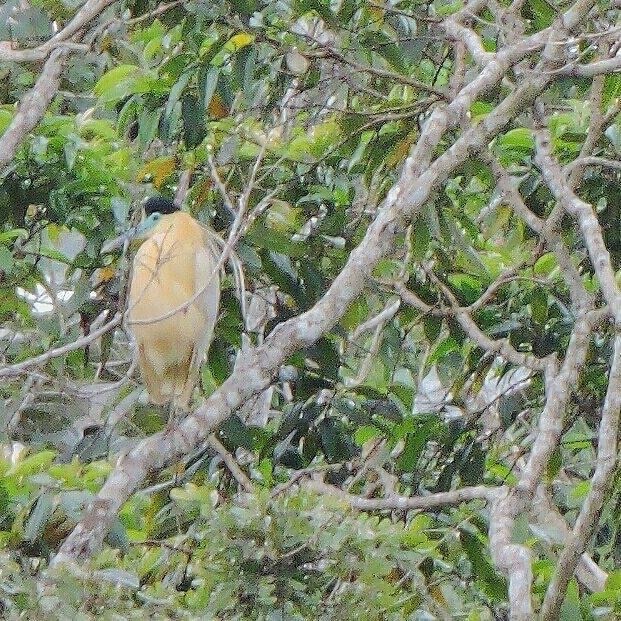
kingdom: Animalia
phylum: Chordata
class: Aves
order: Pelecaniformes
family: Ardeidae
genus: Pilherodius
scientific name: Pilherodius pileatus
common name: Capped heron
